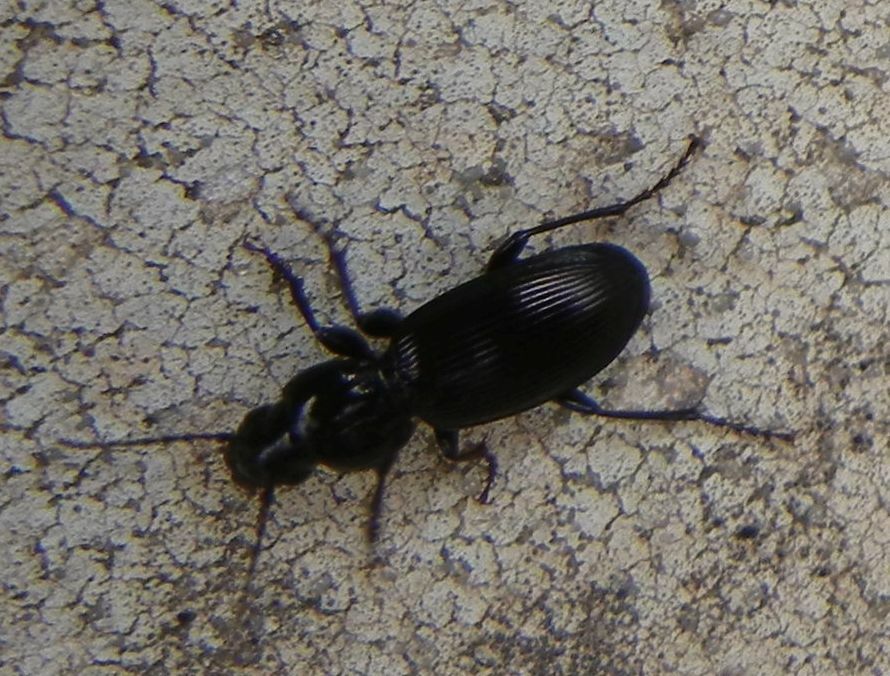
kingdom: Animalia
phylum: Arthropoda
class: Insecta
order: Coleoptera
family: Carabidae
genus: Pterostichus
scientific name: Pterostichus madidus
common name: Black clock
